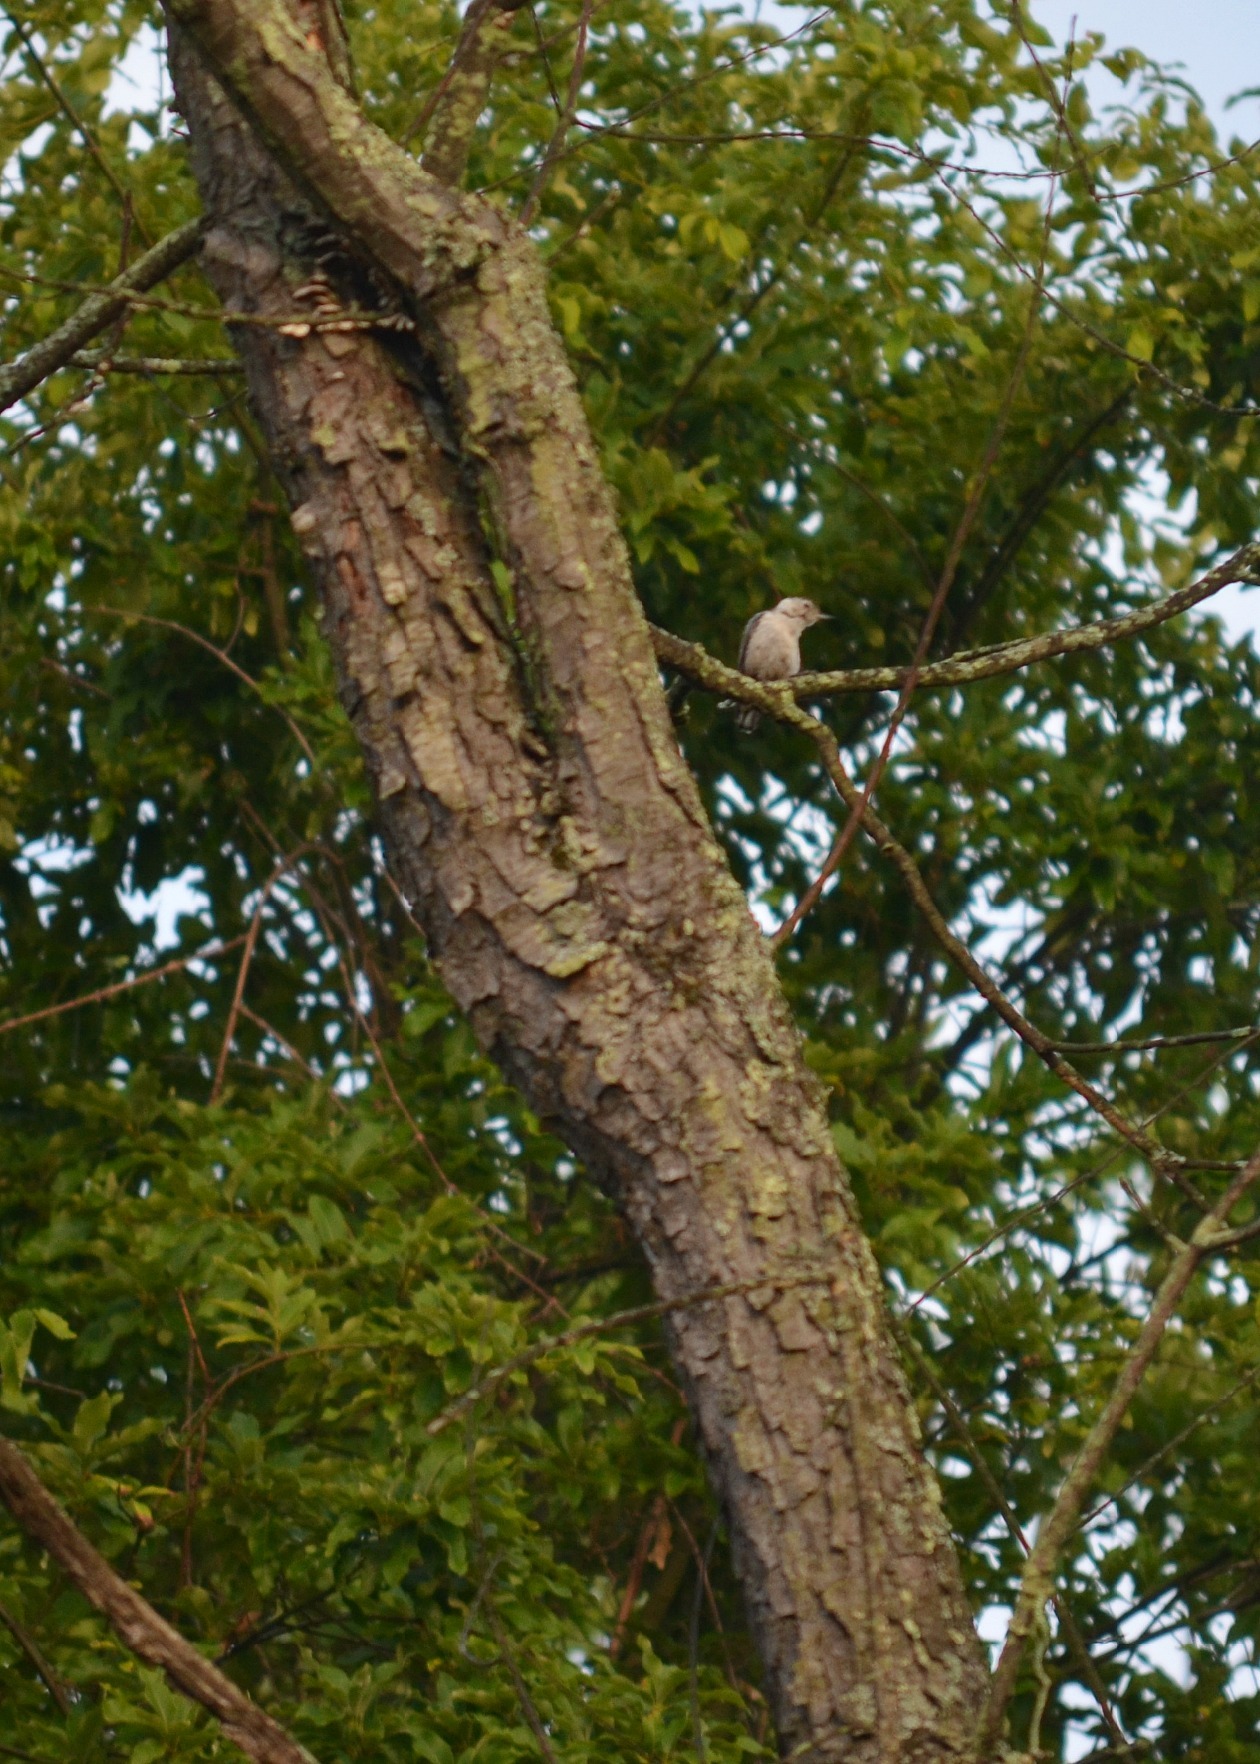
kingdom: Animalia
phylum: Chordata
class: Aves
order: Passeriformes
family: Sittidae
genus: Sitta
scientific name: Sitta carolinensis
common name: White-breasted nuthatch
